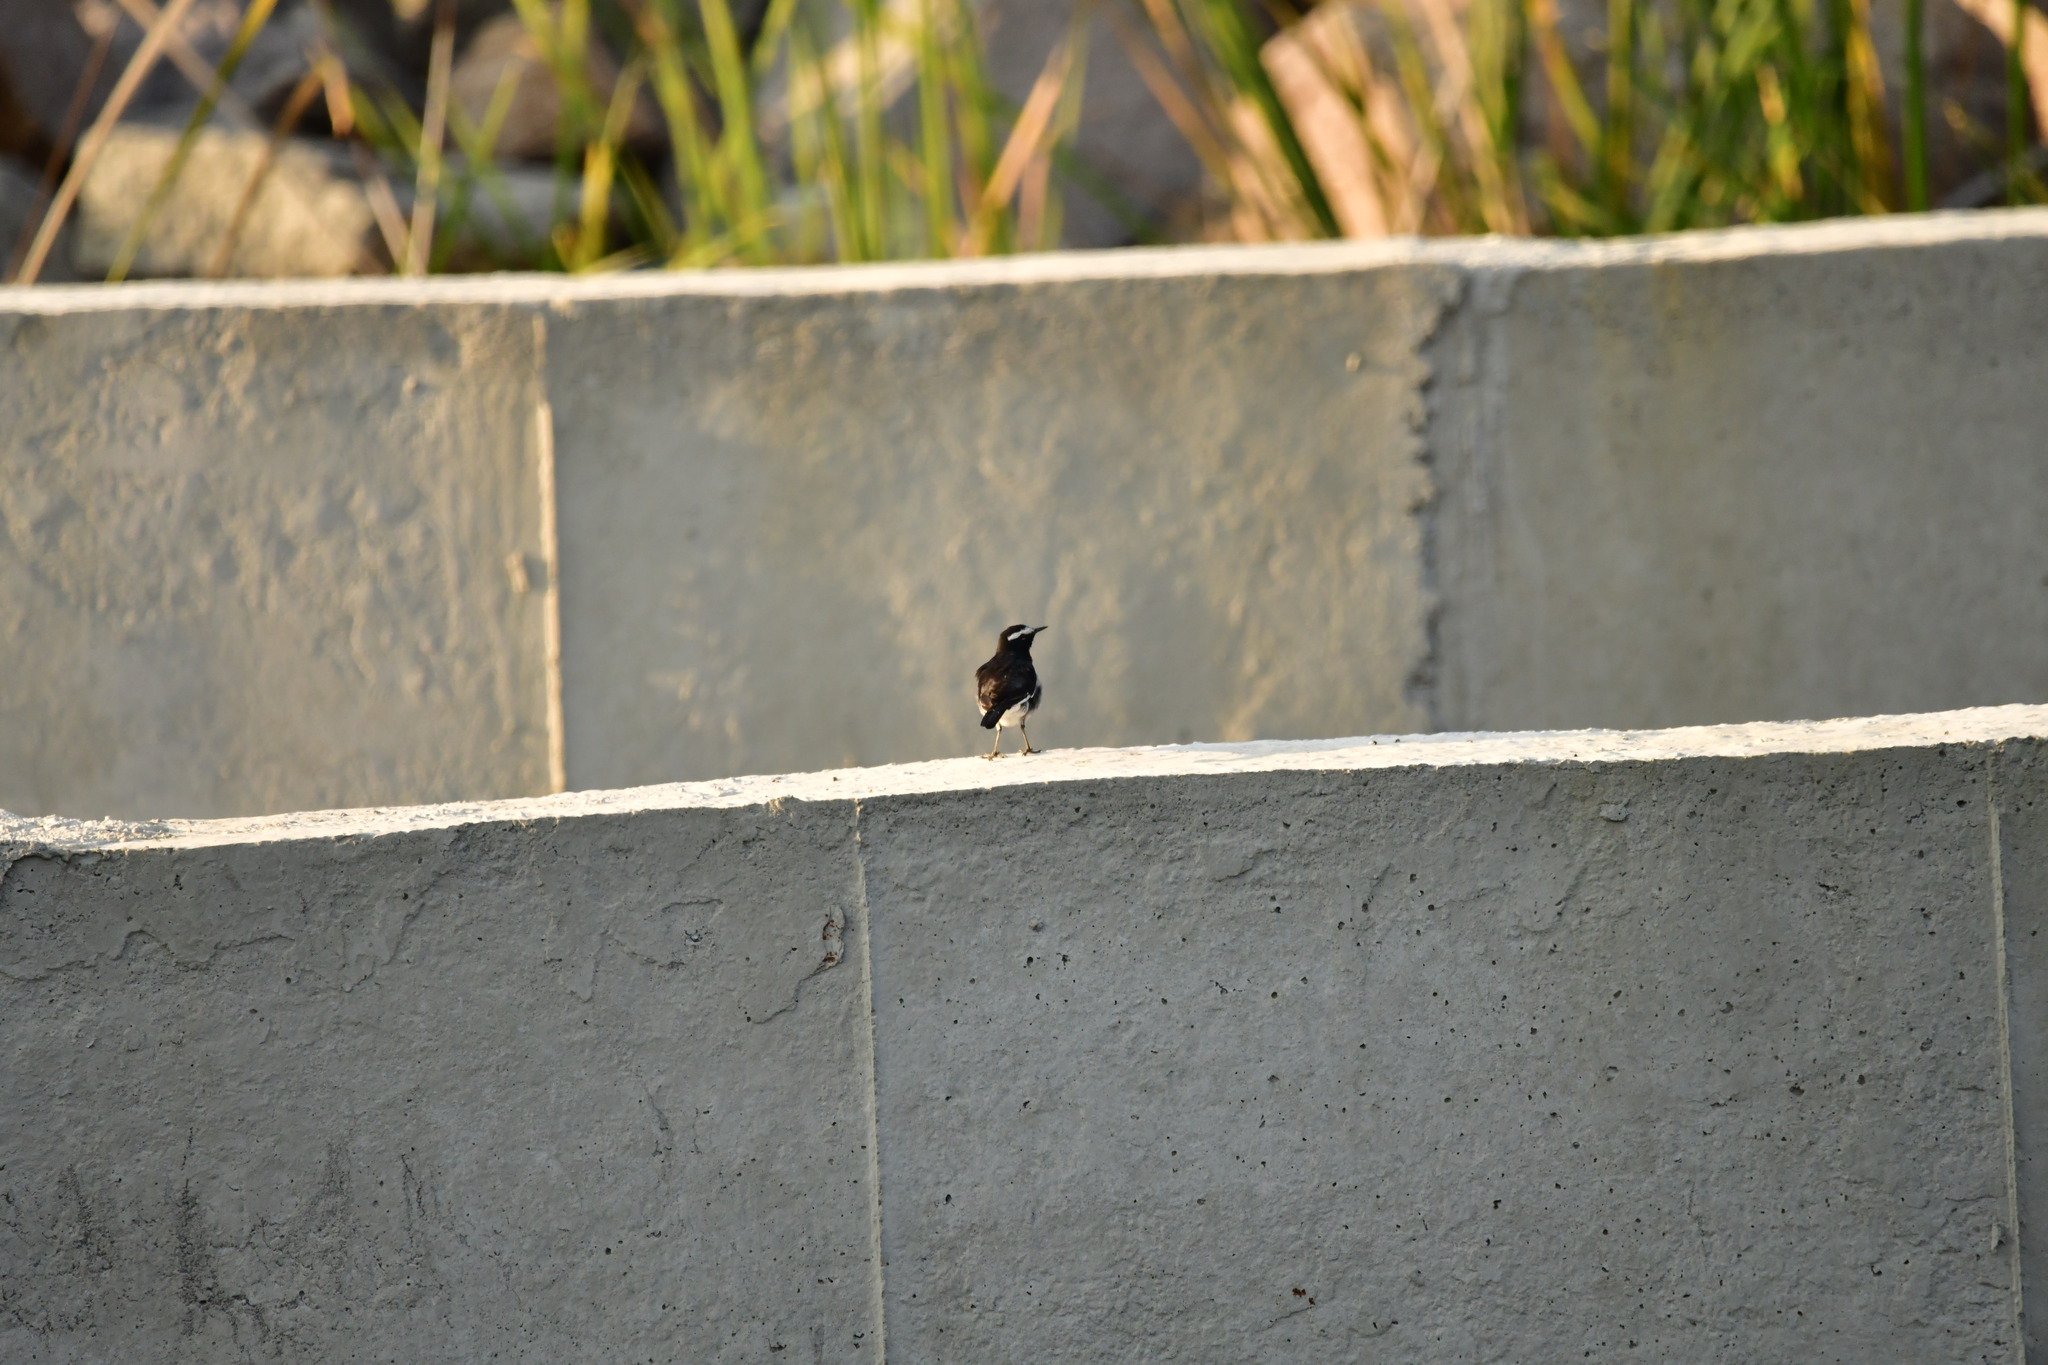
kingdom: Animalia
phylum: Chordata
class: Aves
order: Passeriformes
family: Motacillidae
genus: Motacilla
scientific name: Motacilla maderaspatensis
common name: White-browed wagtail
